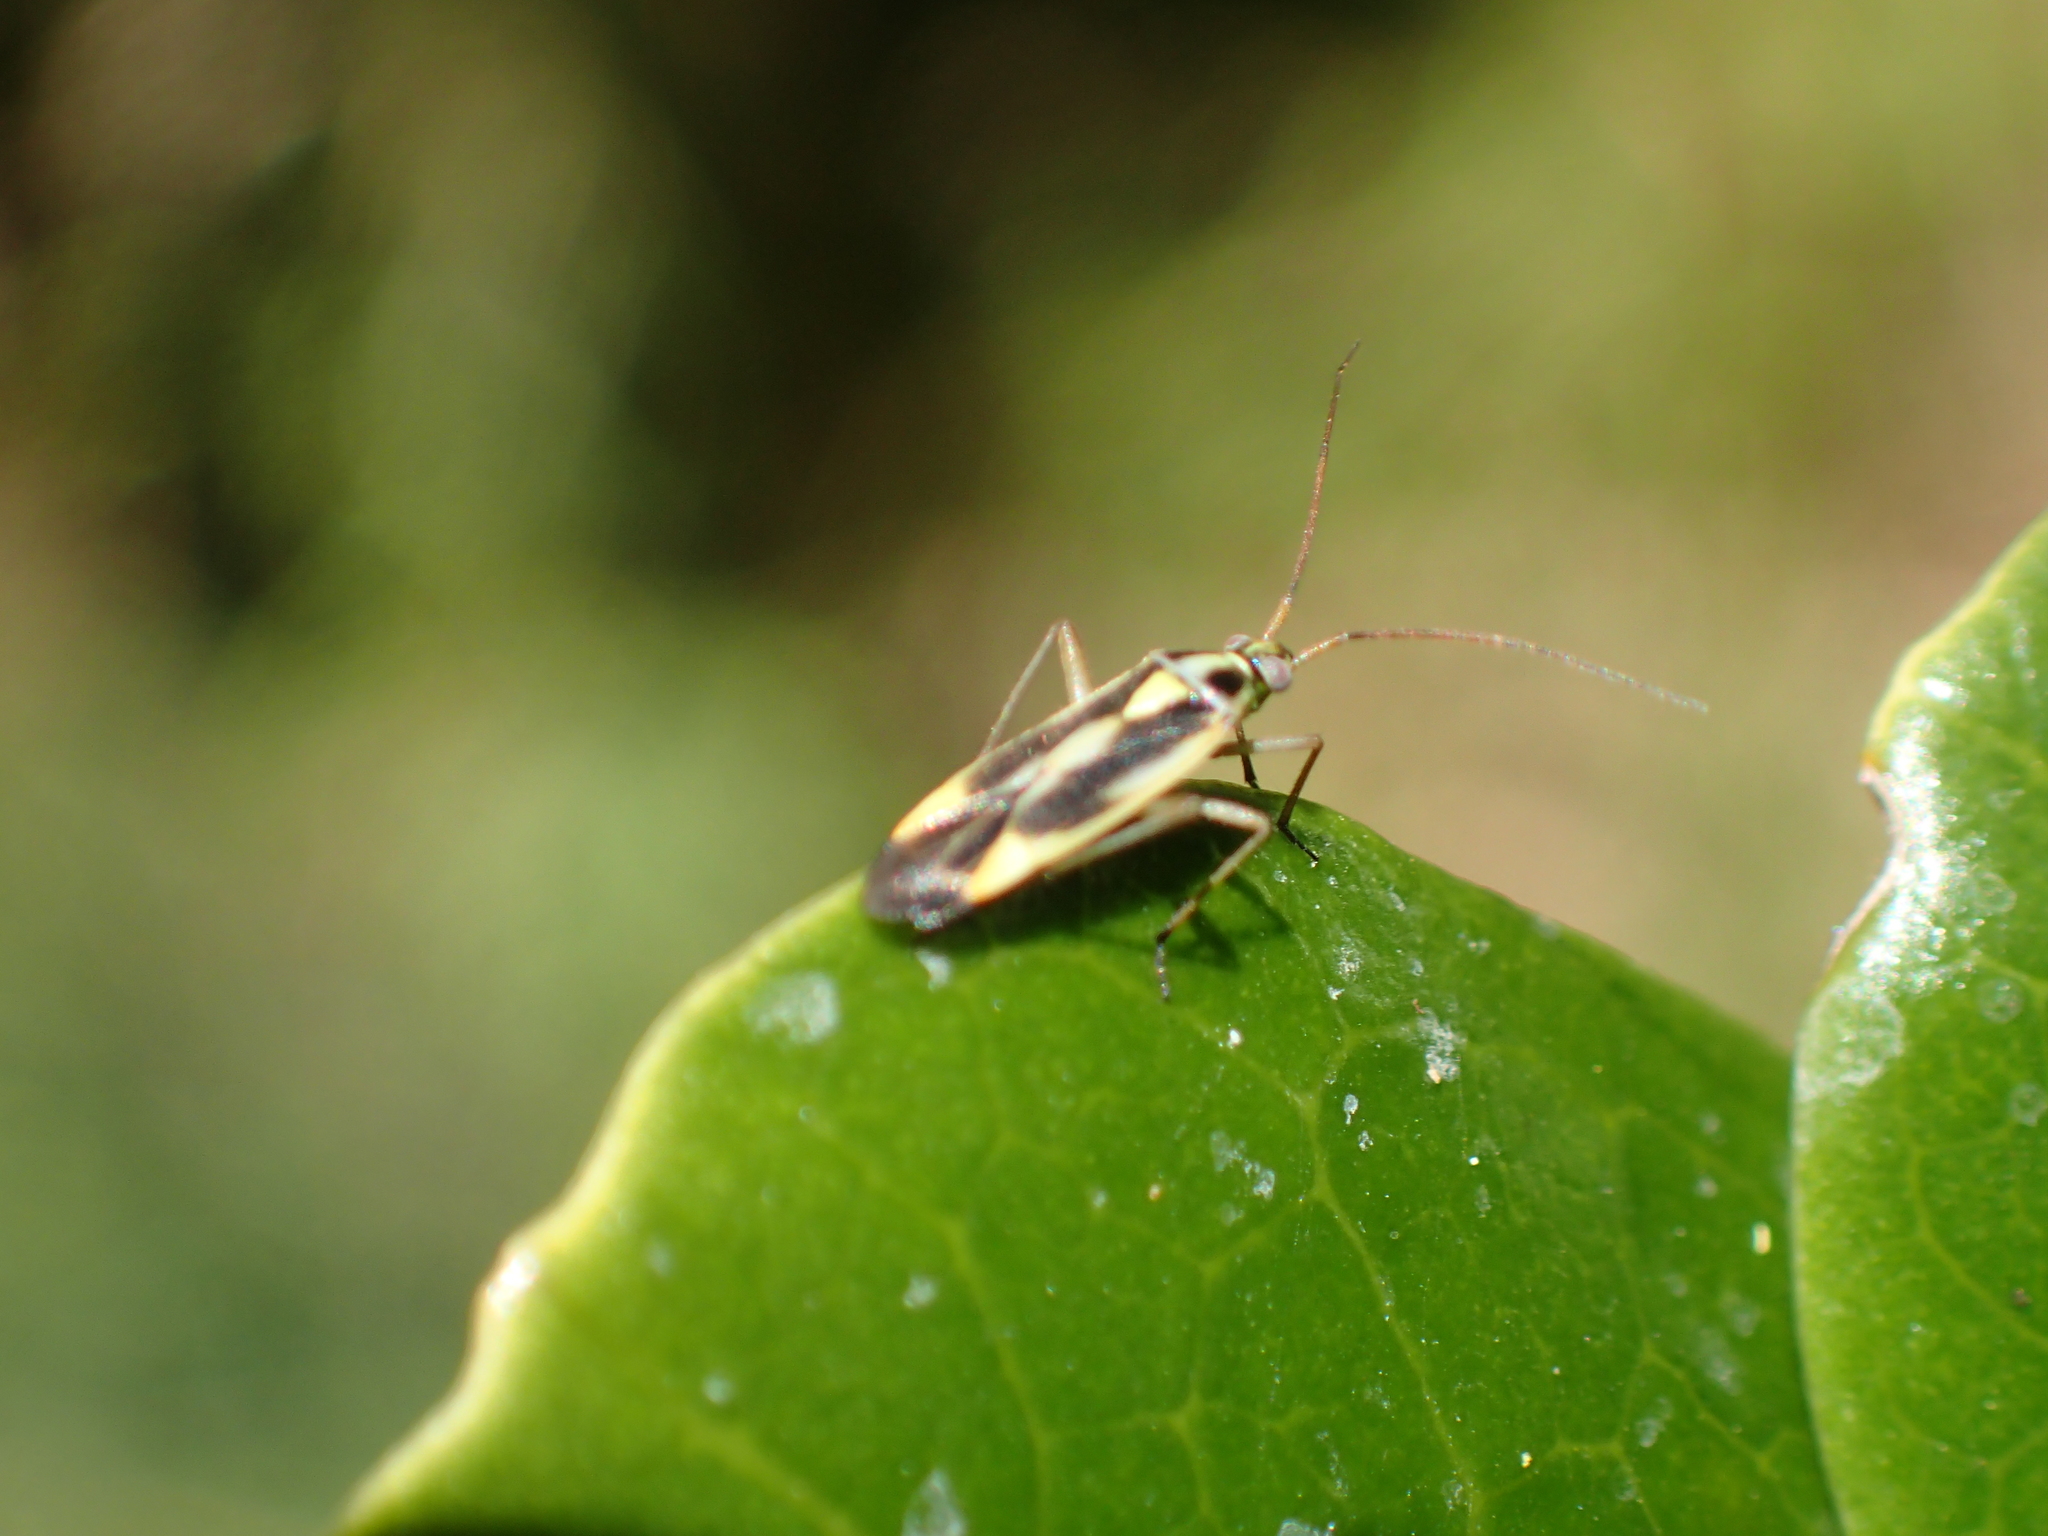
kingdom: Animalia
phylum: Arthropoda
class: Insecta
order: Hemiptera
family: Miridae
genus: Stenotus
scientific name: Stenotus binotatus
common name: Plant bug
